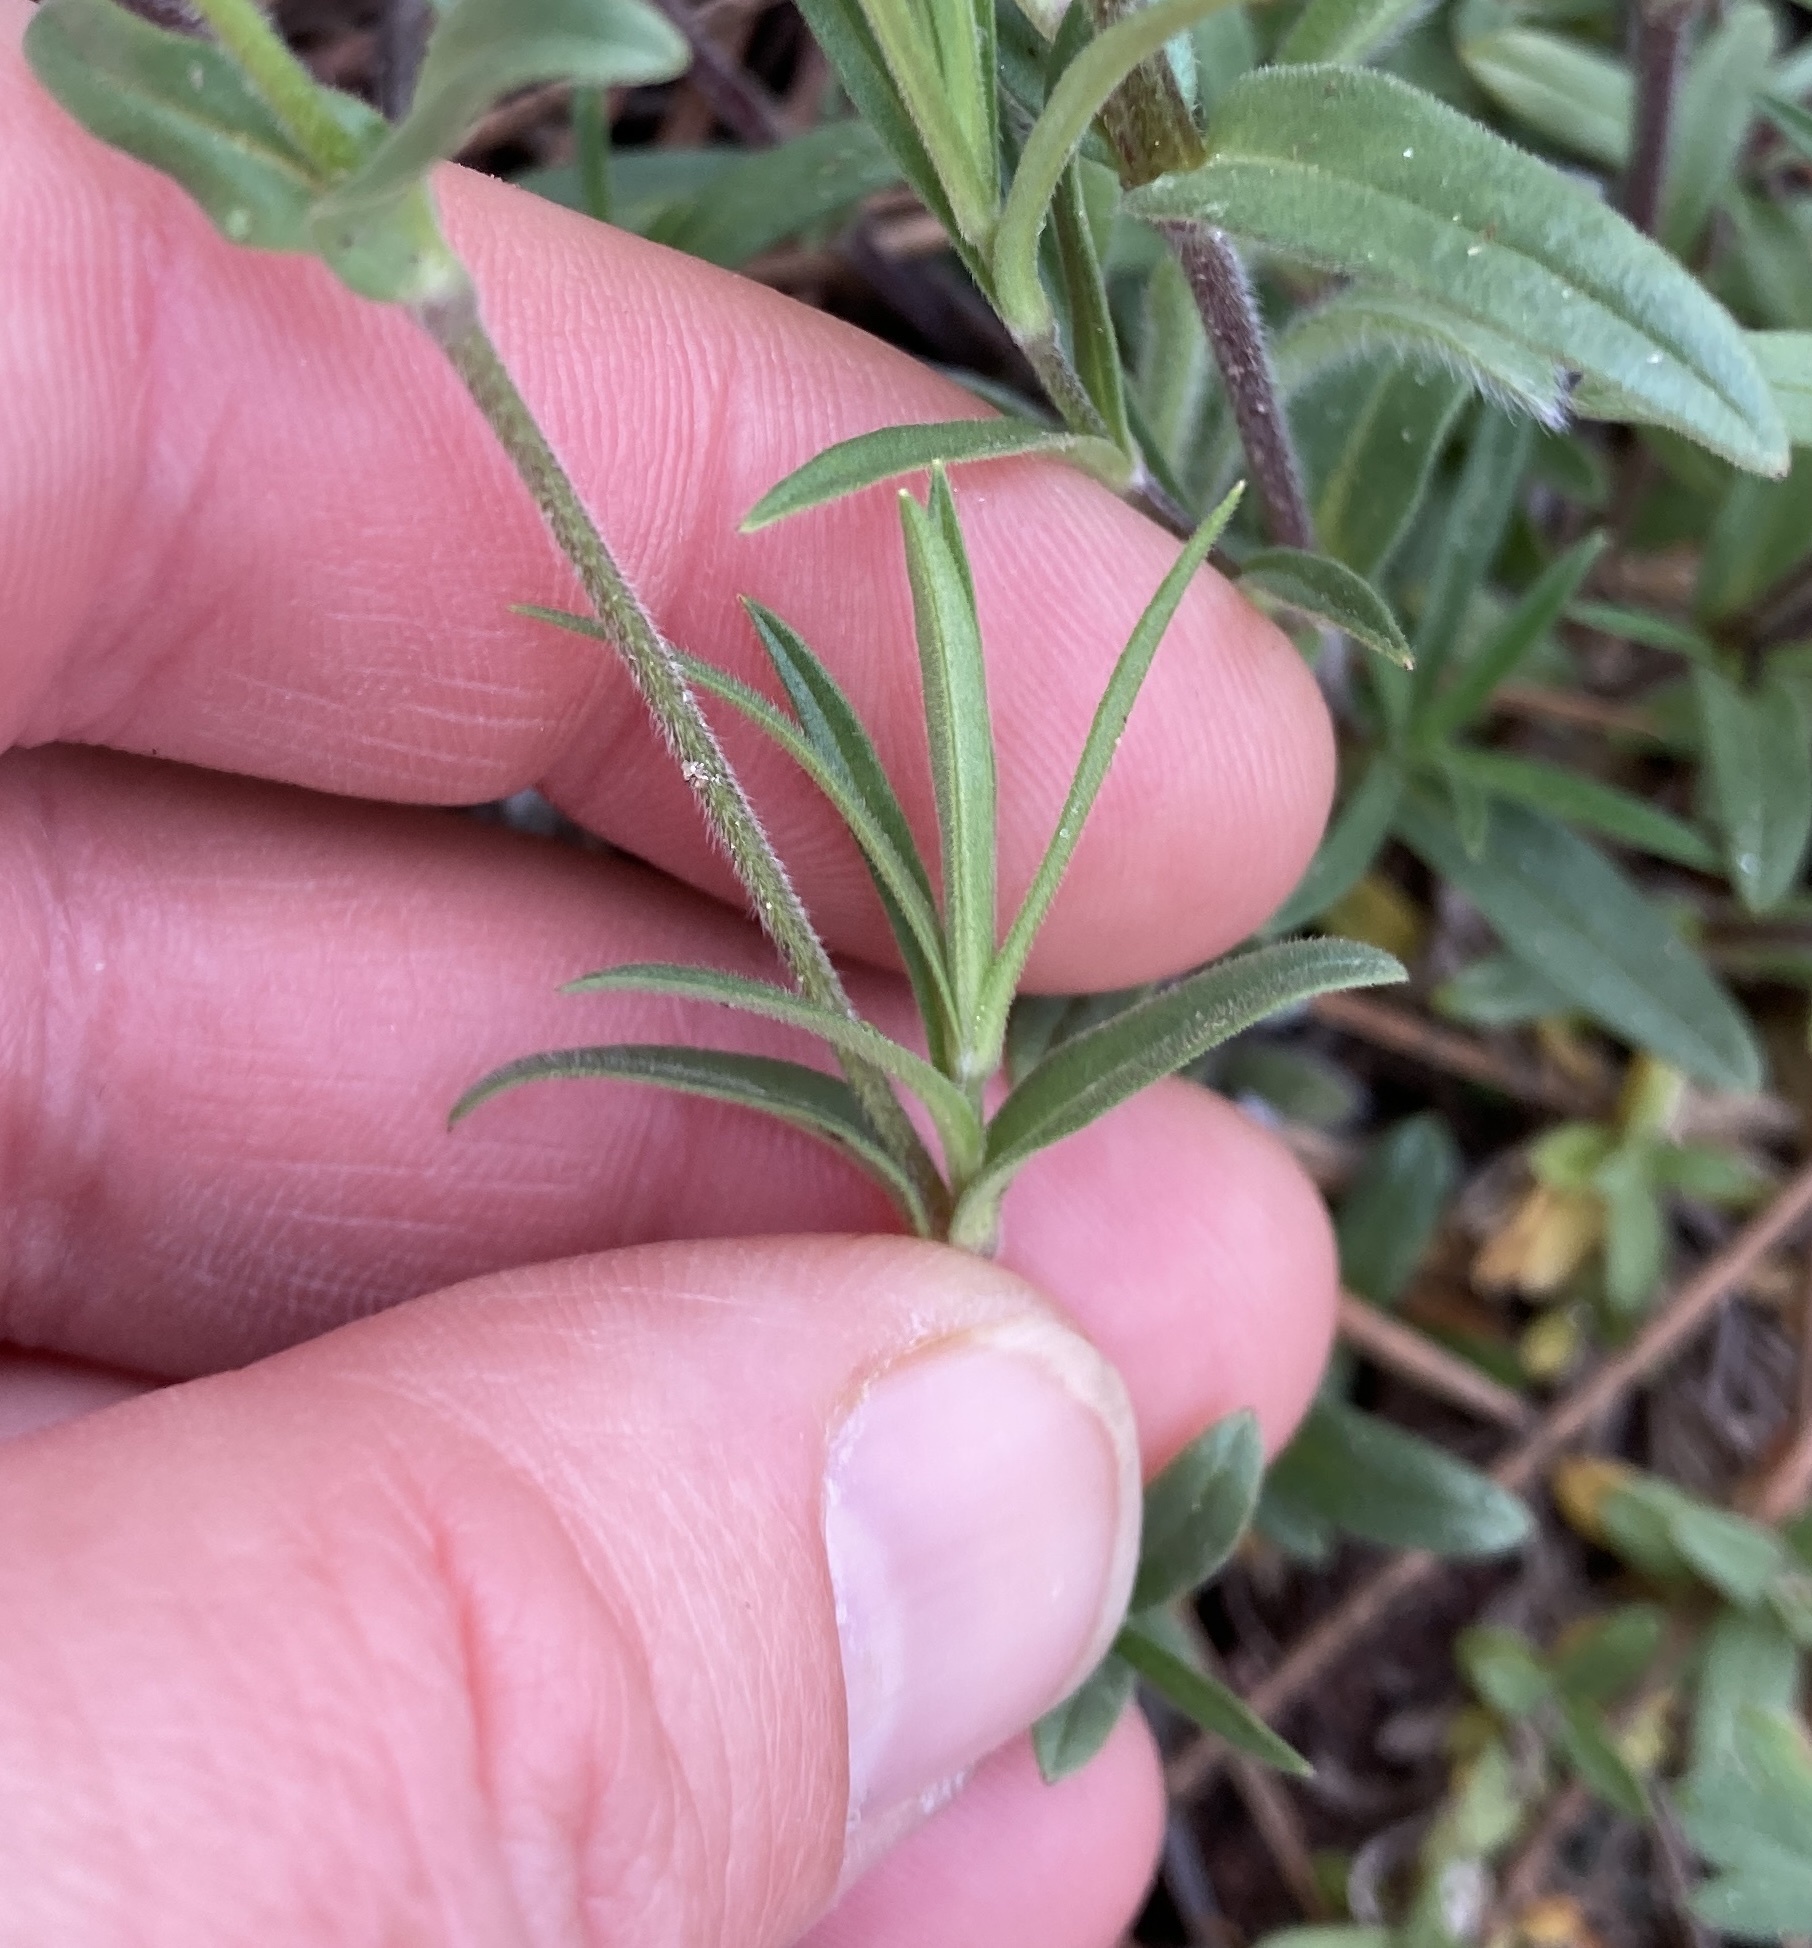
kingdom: Plantae
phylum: Tracheophyta
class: Magnoliopsida
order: Caryophyllales
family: Caryophyllaceae
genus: Cerastium
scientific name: Cerastium arvense
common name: Field mouse-ear
